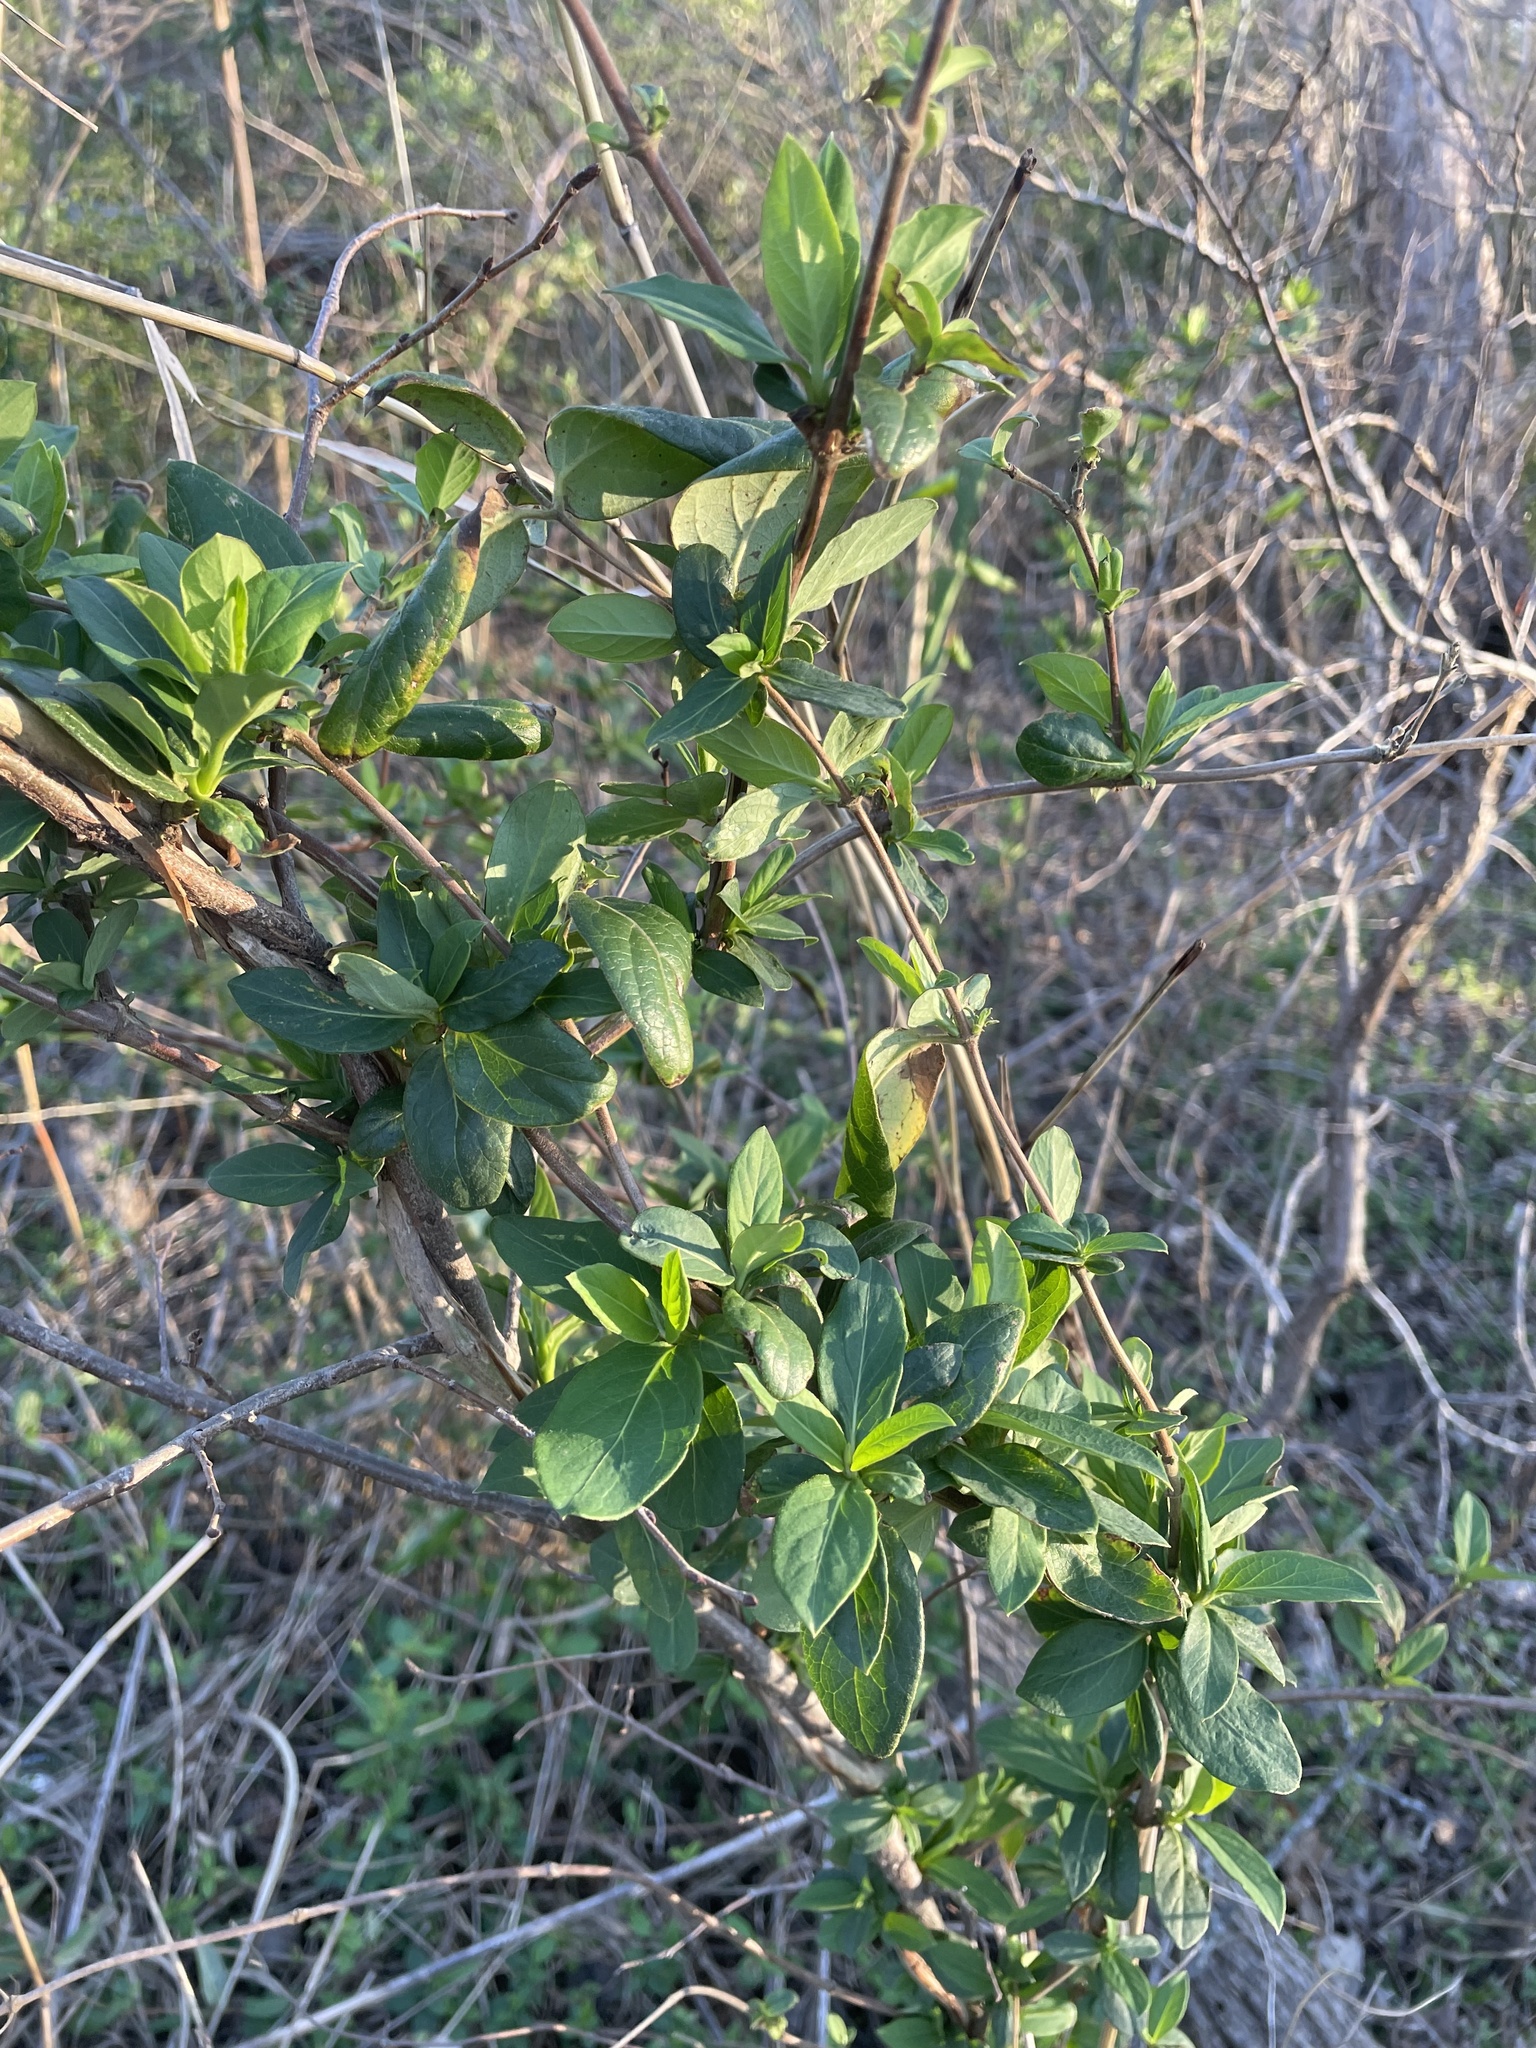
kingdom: Plantae
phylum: Tracheophyta
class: Magnoliopsida
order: Dipsacales
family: Caprifoliaceae
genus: Lonicera
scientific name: Lonicera japonica
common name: Japanese honeysuckle
